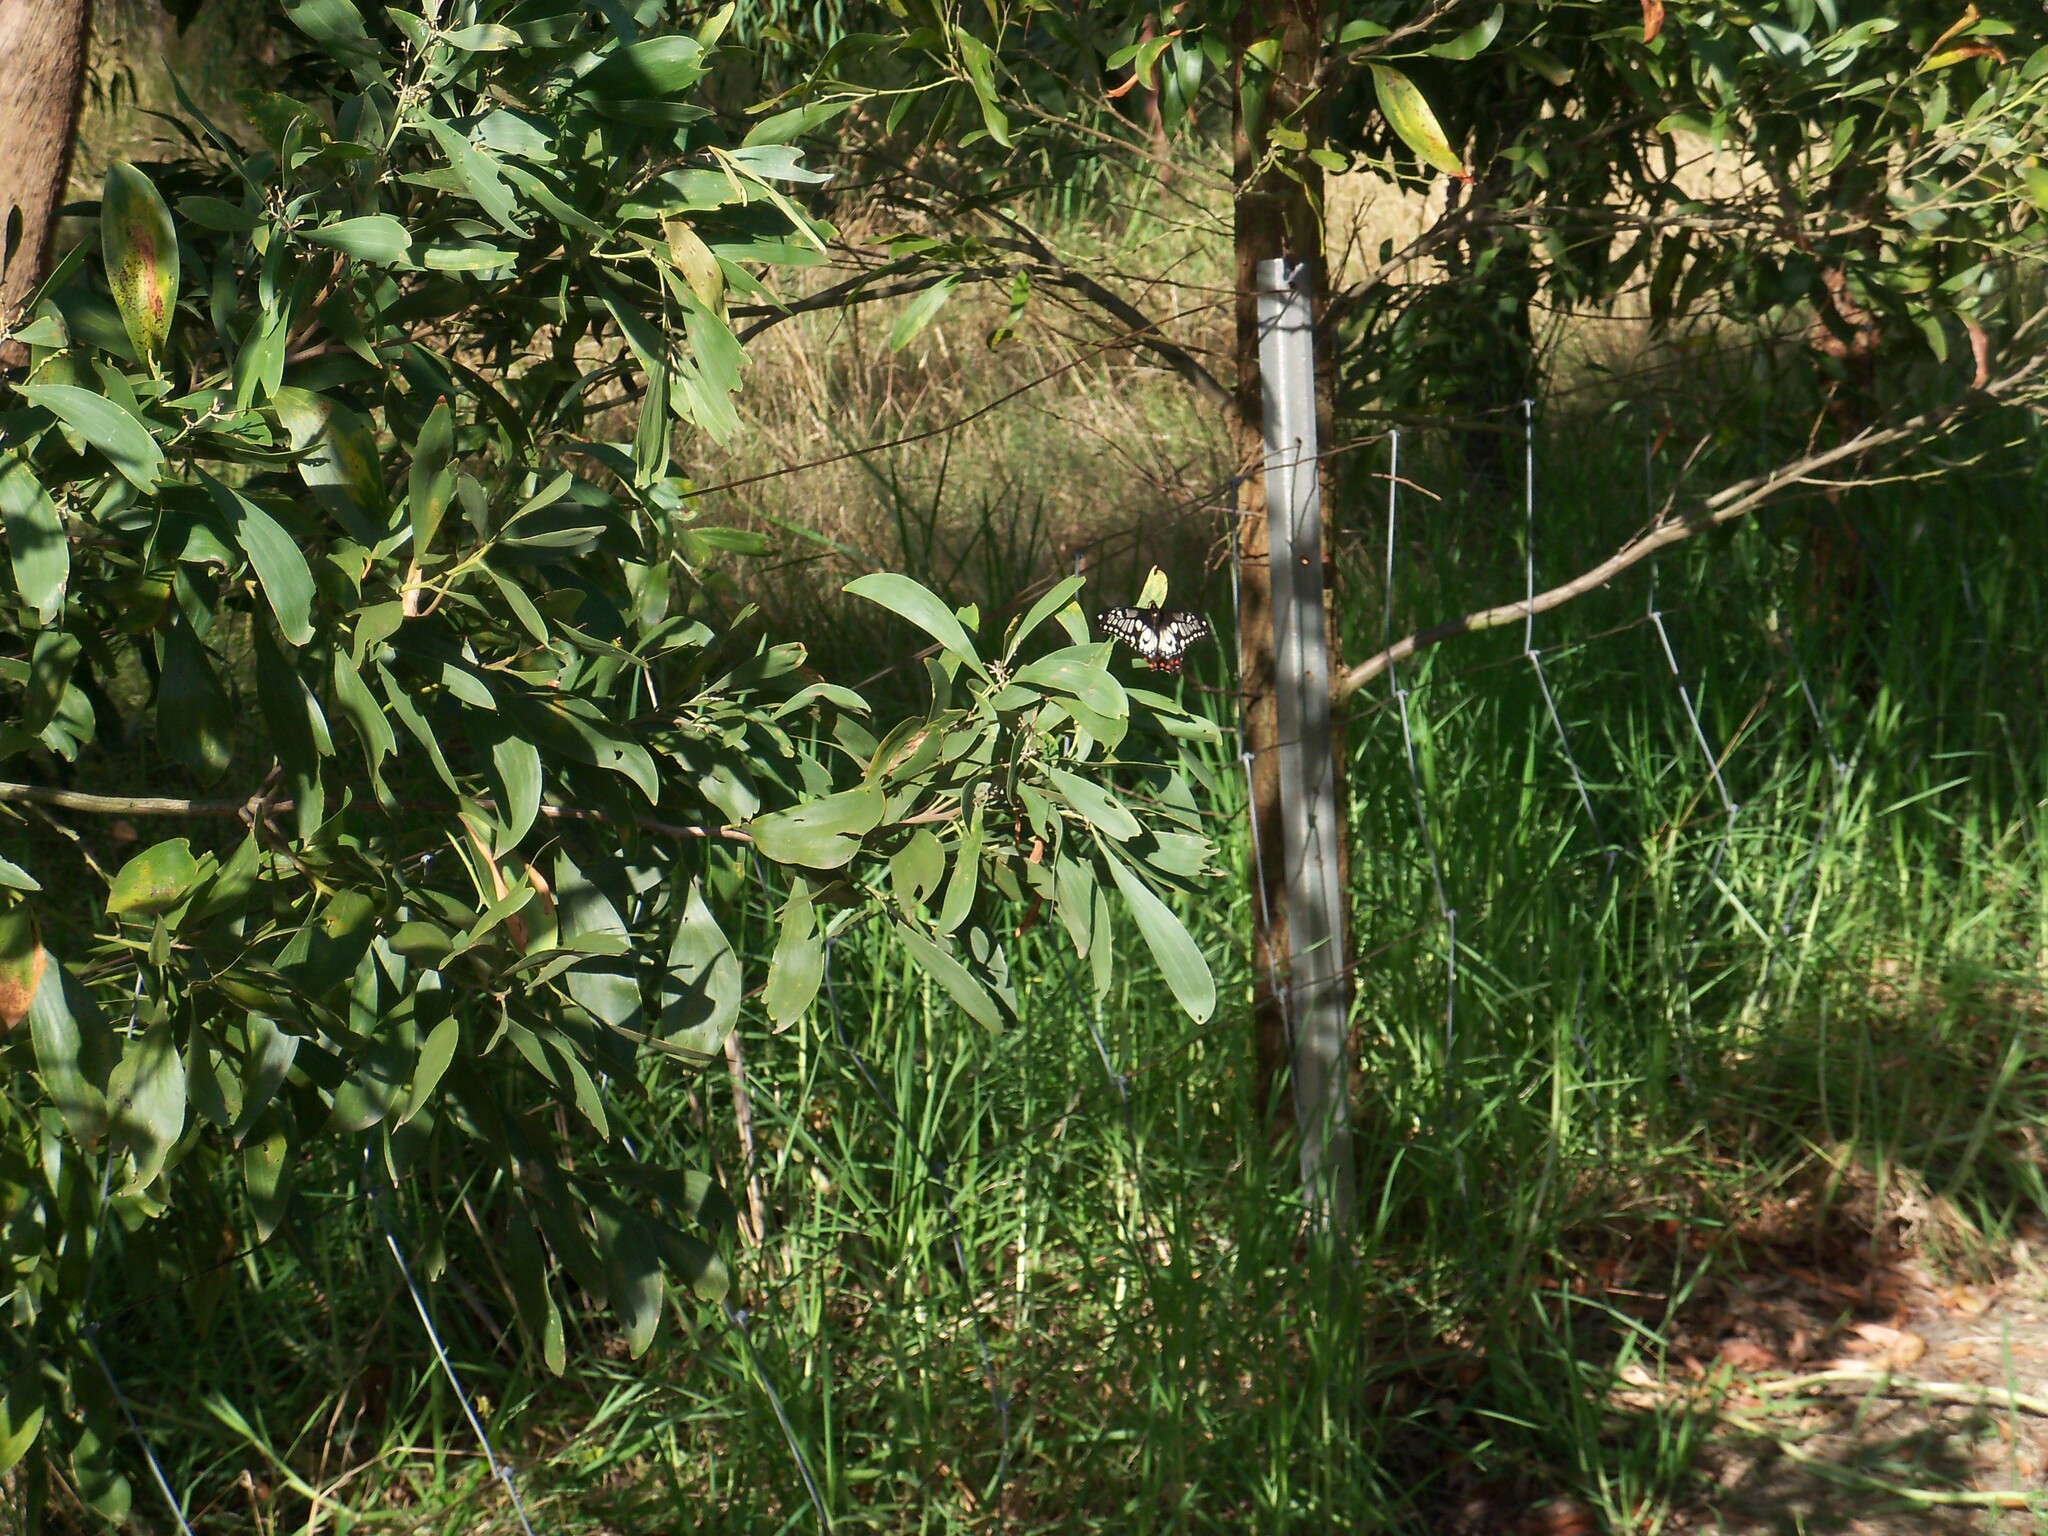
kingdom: Animalia
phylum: Arthropoda
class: Insecta
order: Lepidoptera
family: Papilionidae
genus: Papilio
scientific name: Papilio anactus
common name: Dingy swallowtail
